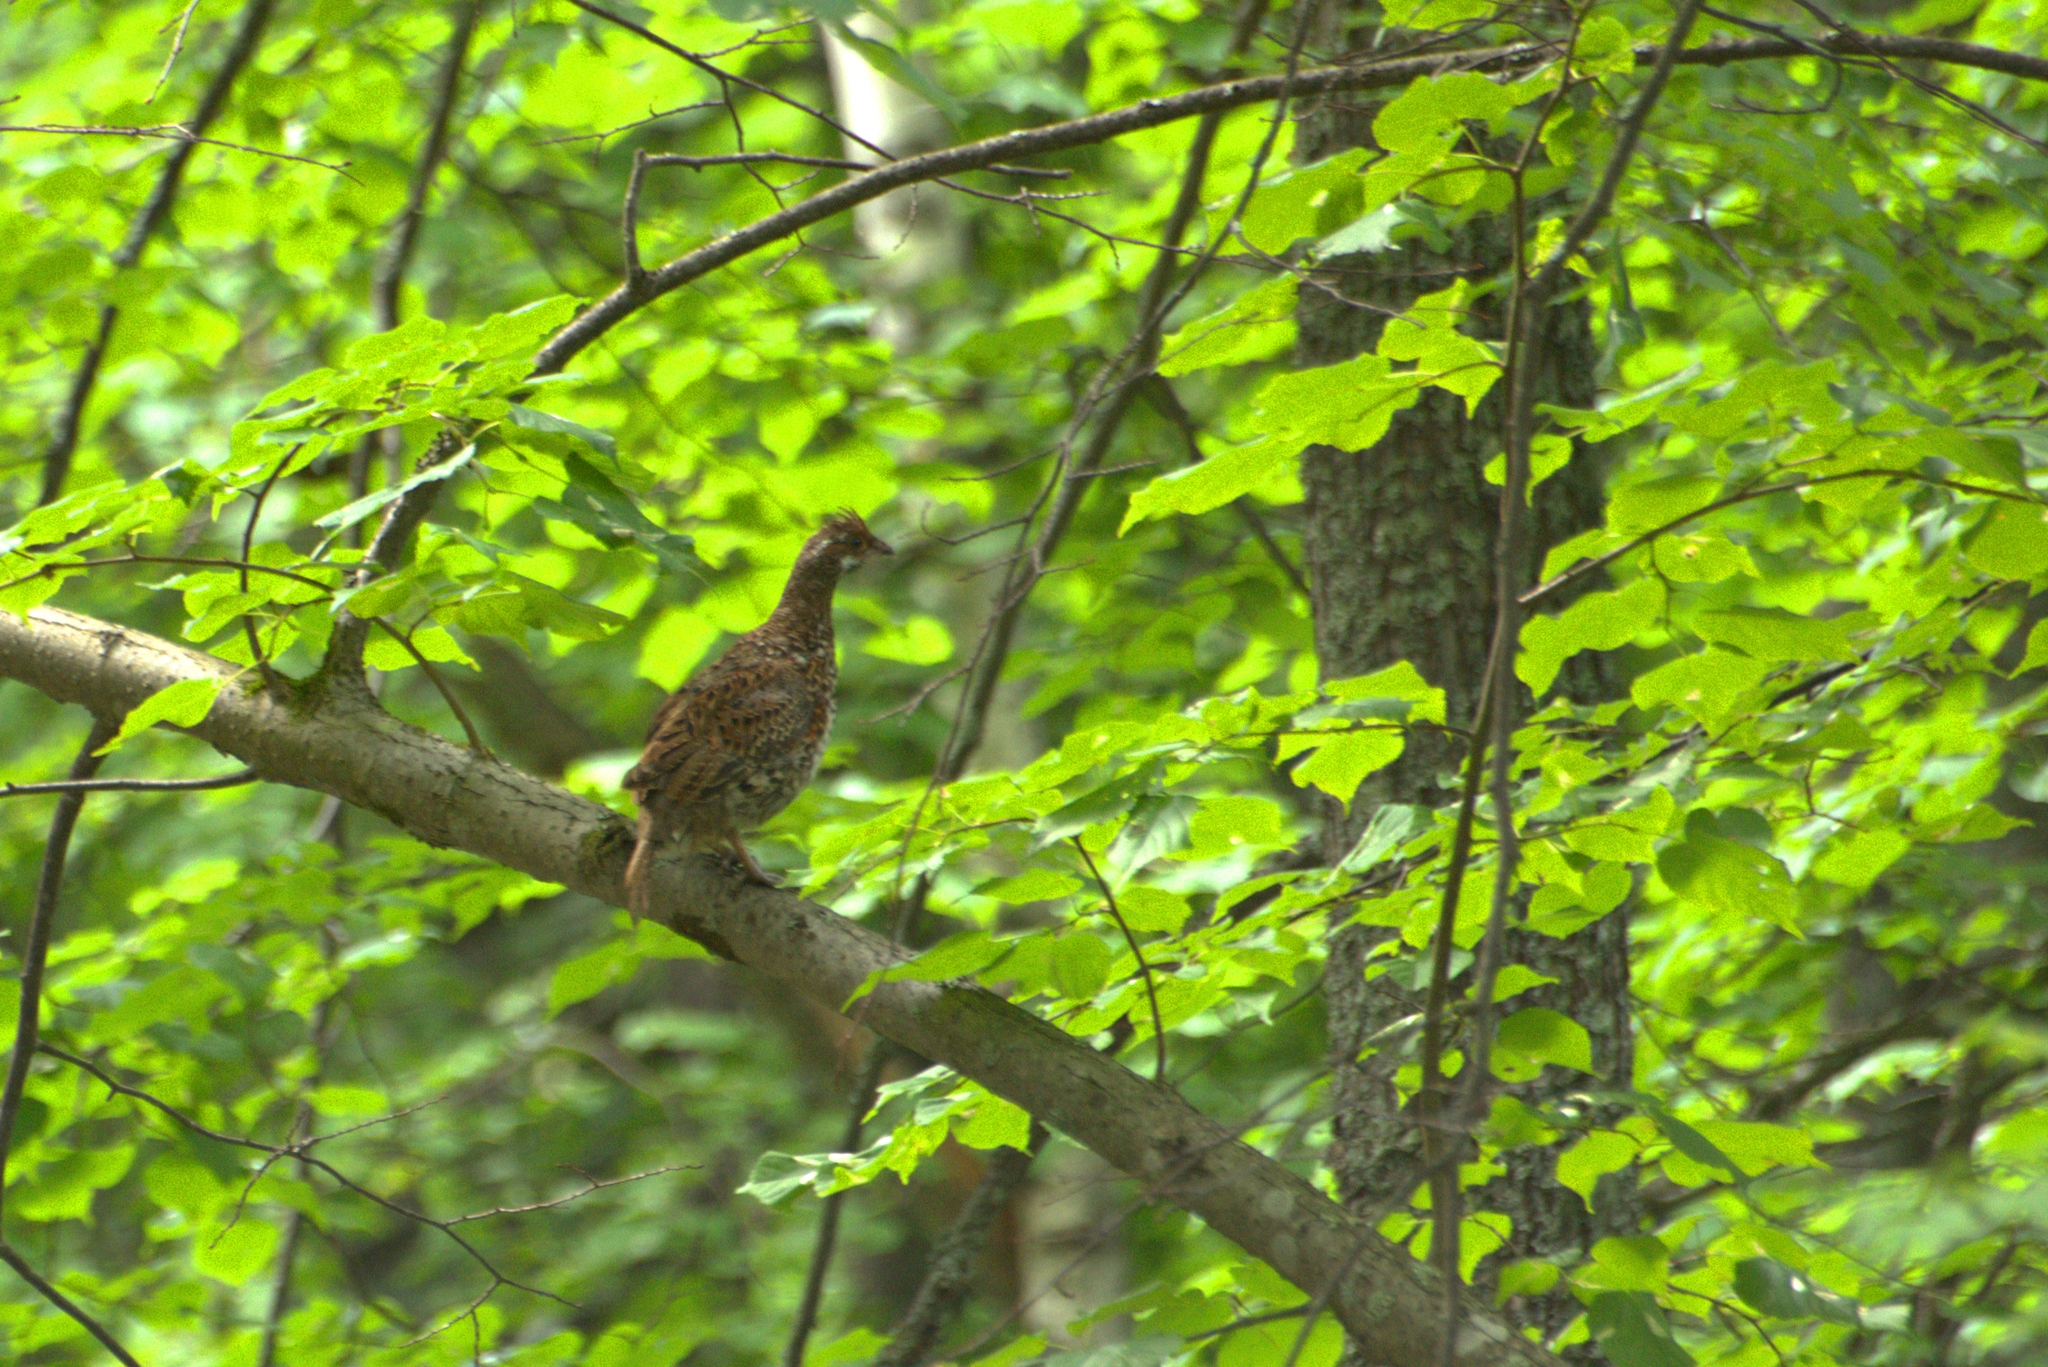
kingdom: Animalia
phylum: Chordata
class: Aves
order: Galliformes
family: Phasianidae
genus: Tetrastes
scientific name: Tetrastes bonasia
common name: Hazel grouse
